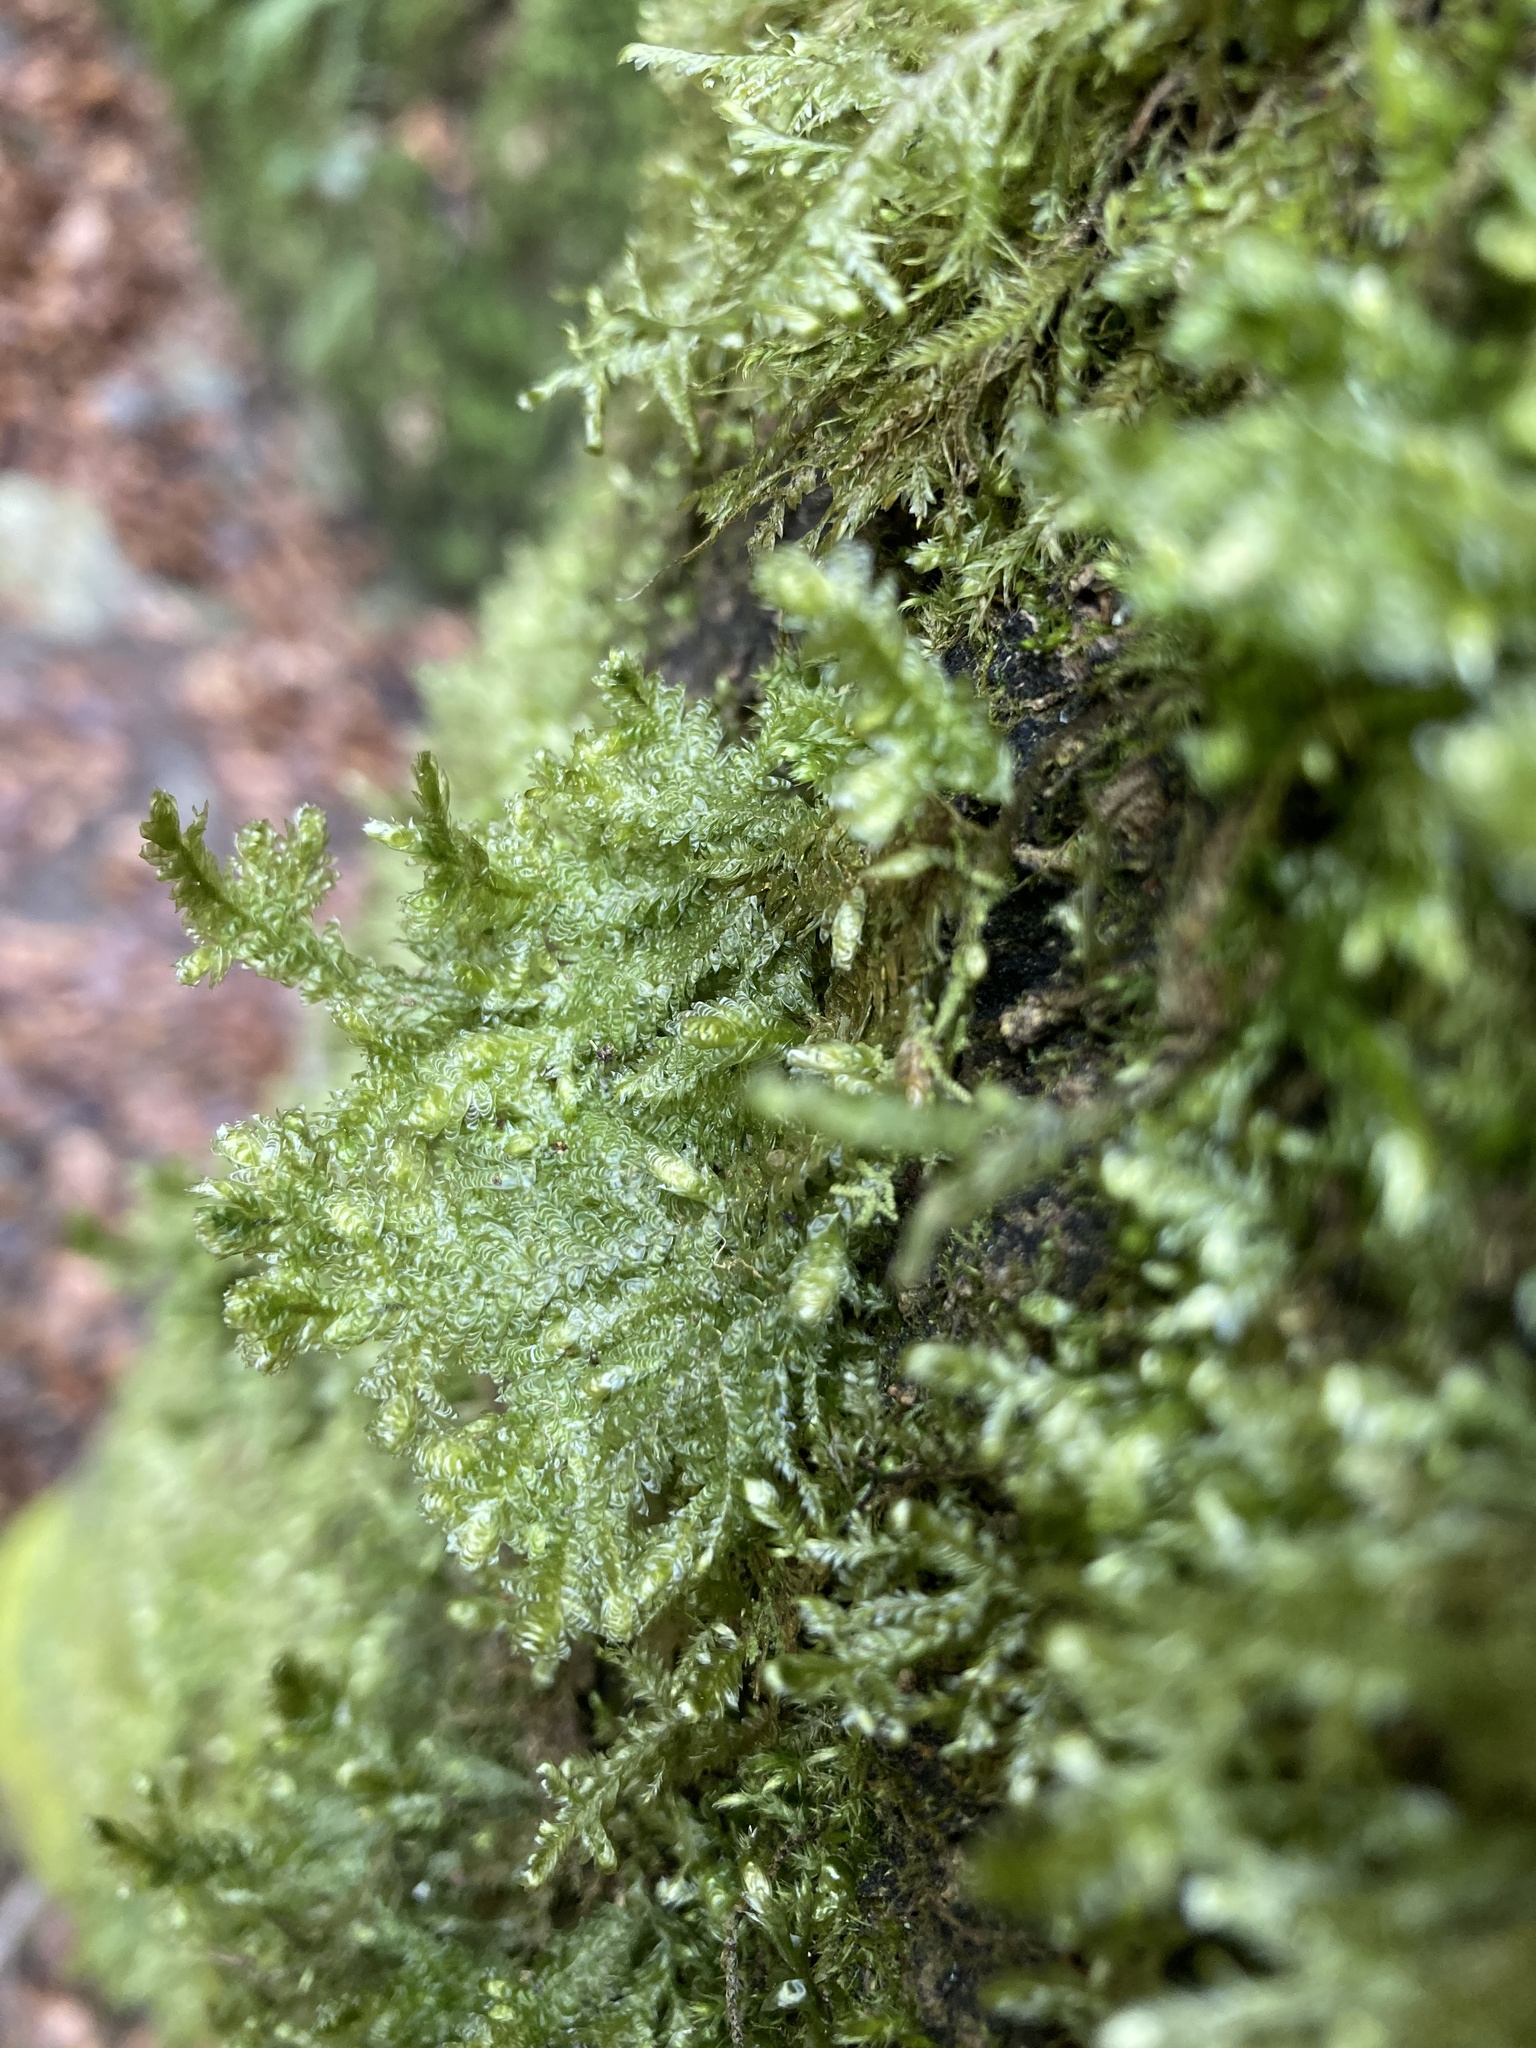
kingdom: Plantae
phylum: Bryophyta
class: Bryopsida
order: Hypnales
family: Neckeraceae
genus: Exsertotheca
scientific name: Exsertotheca crispa
